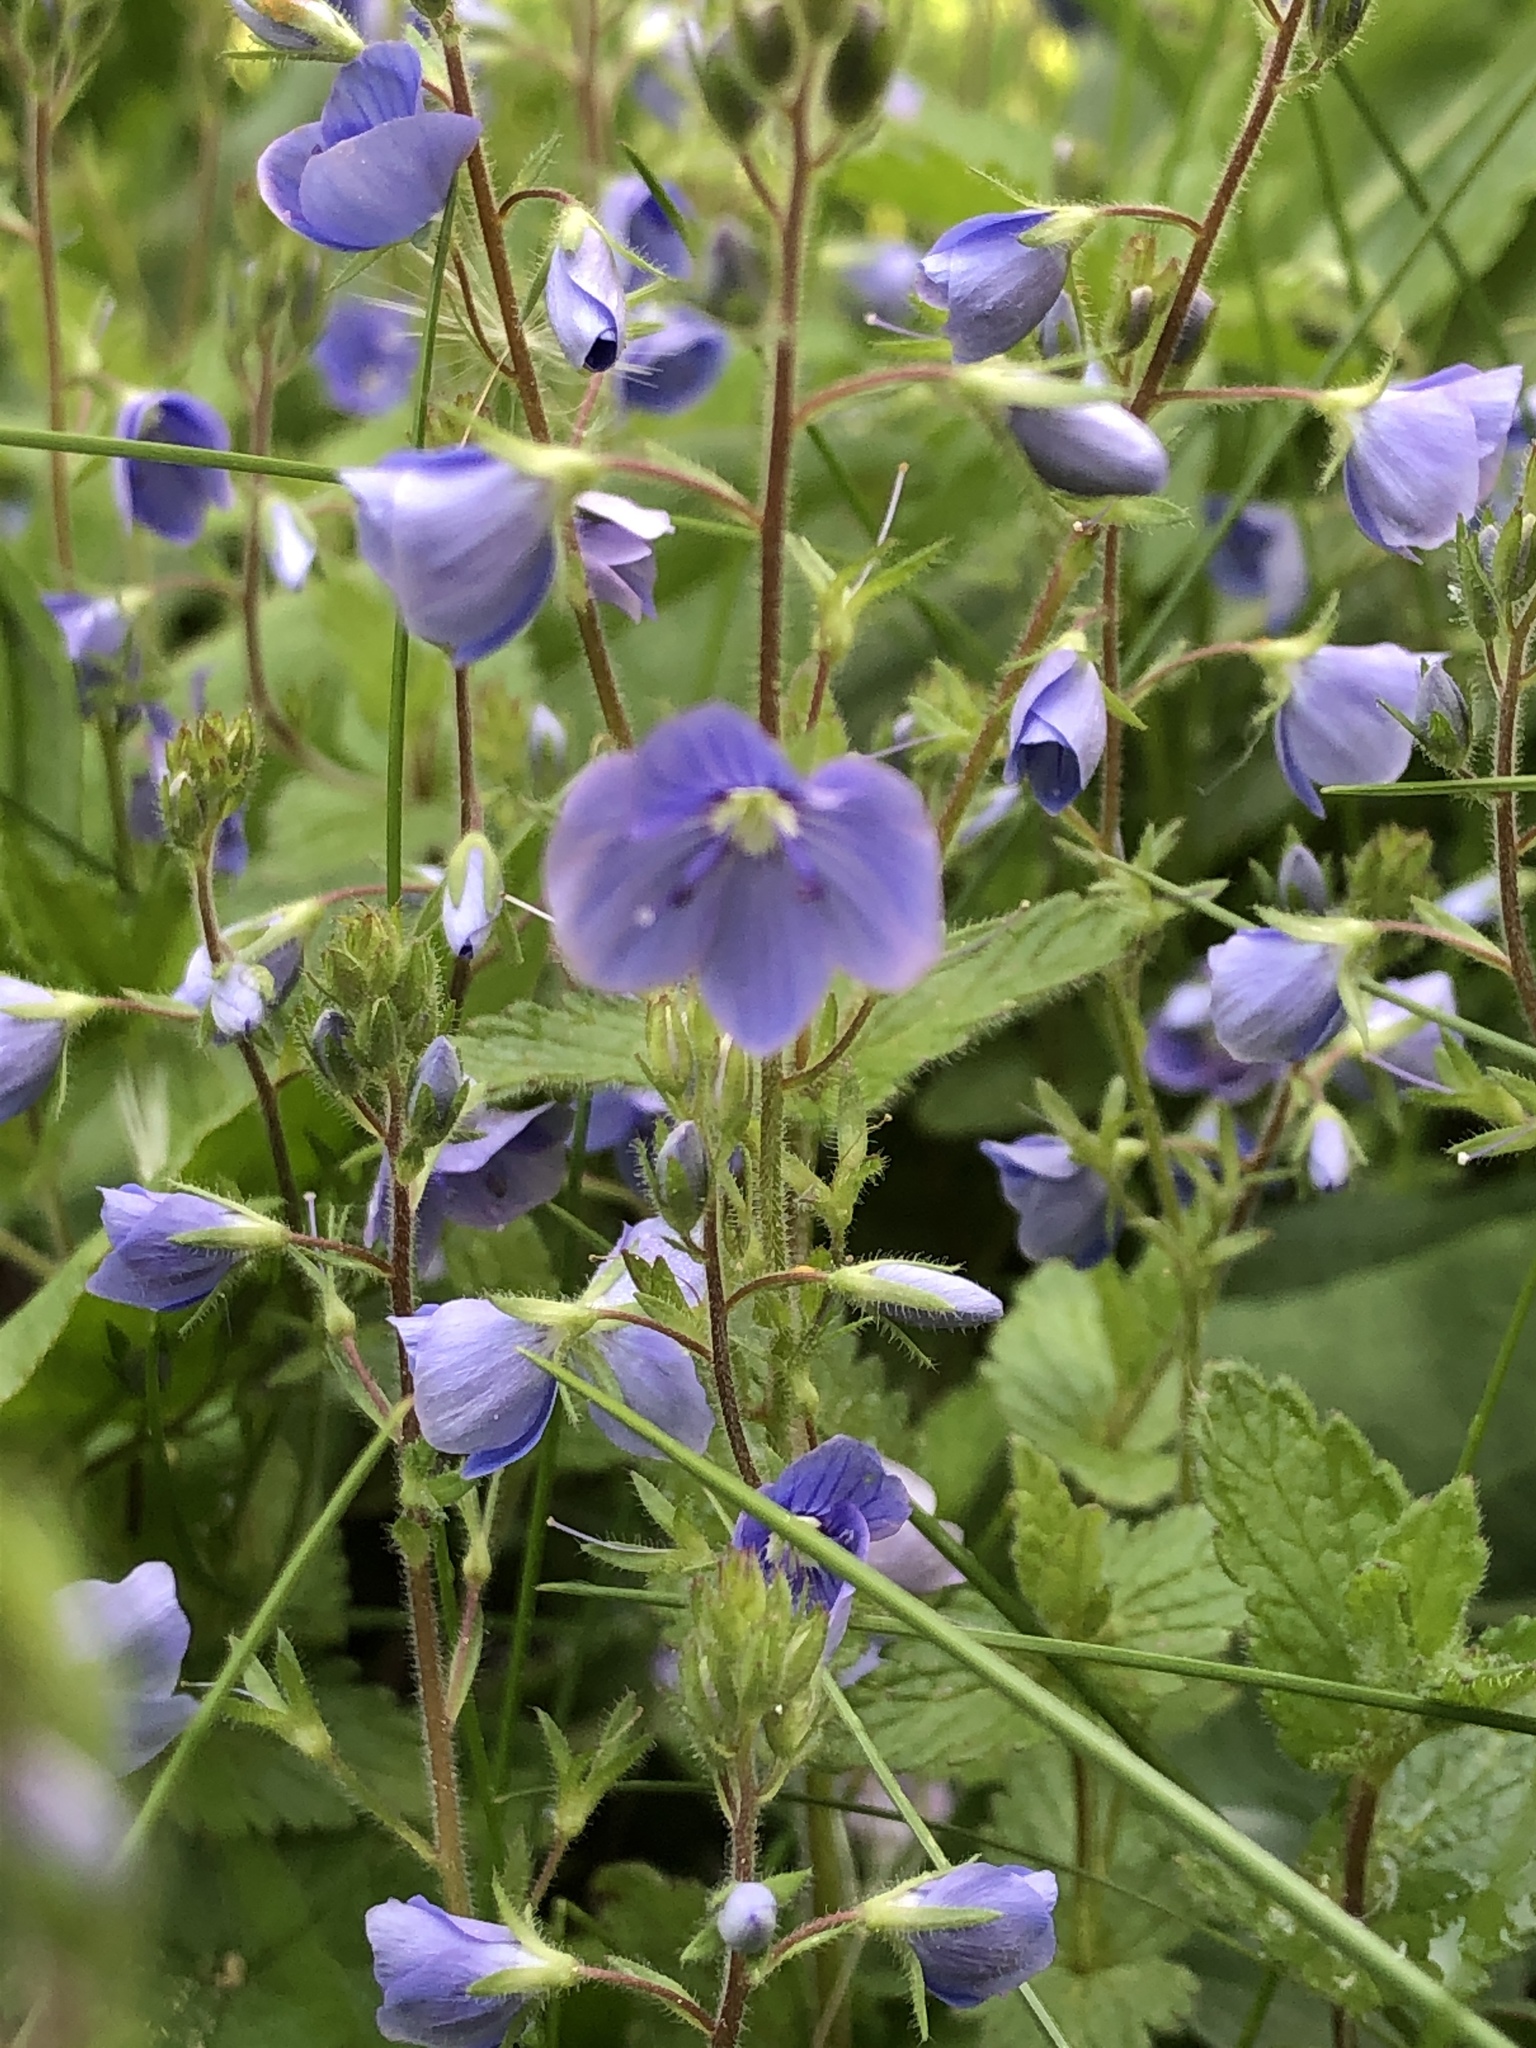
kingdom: Plantae
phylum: Tracheophyta
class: Magnoliopsida
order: Lamiales
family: Plantaginaceae
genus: Veronica
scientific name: Veronica chamaedrys
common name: Germander speedwell
